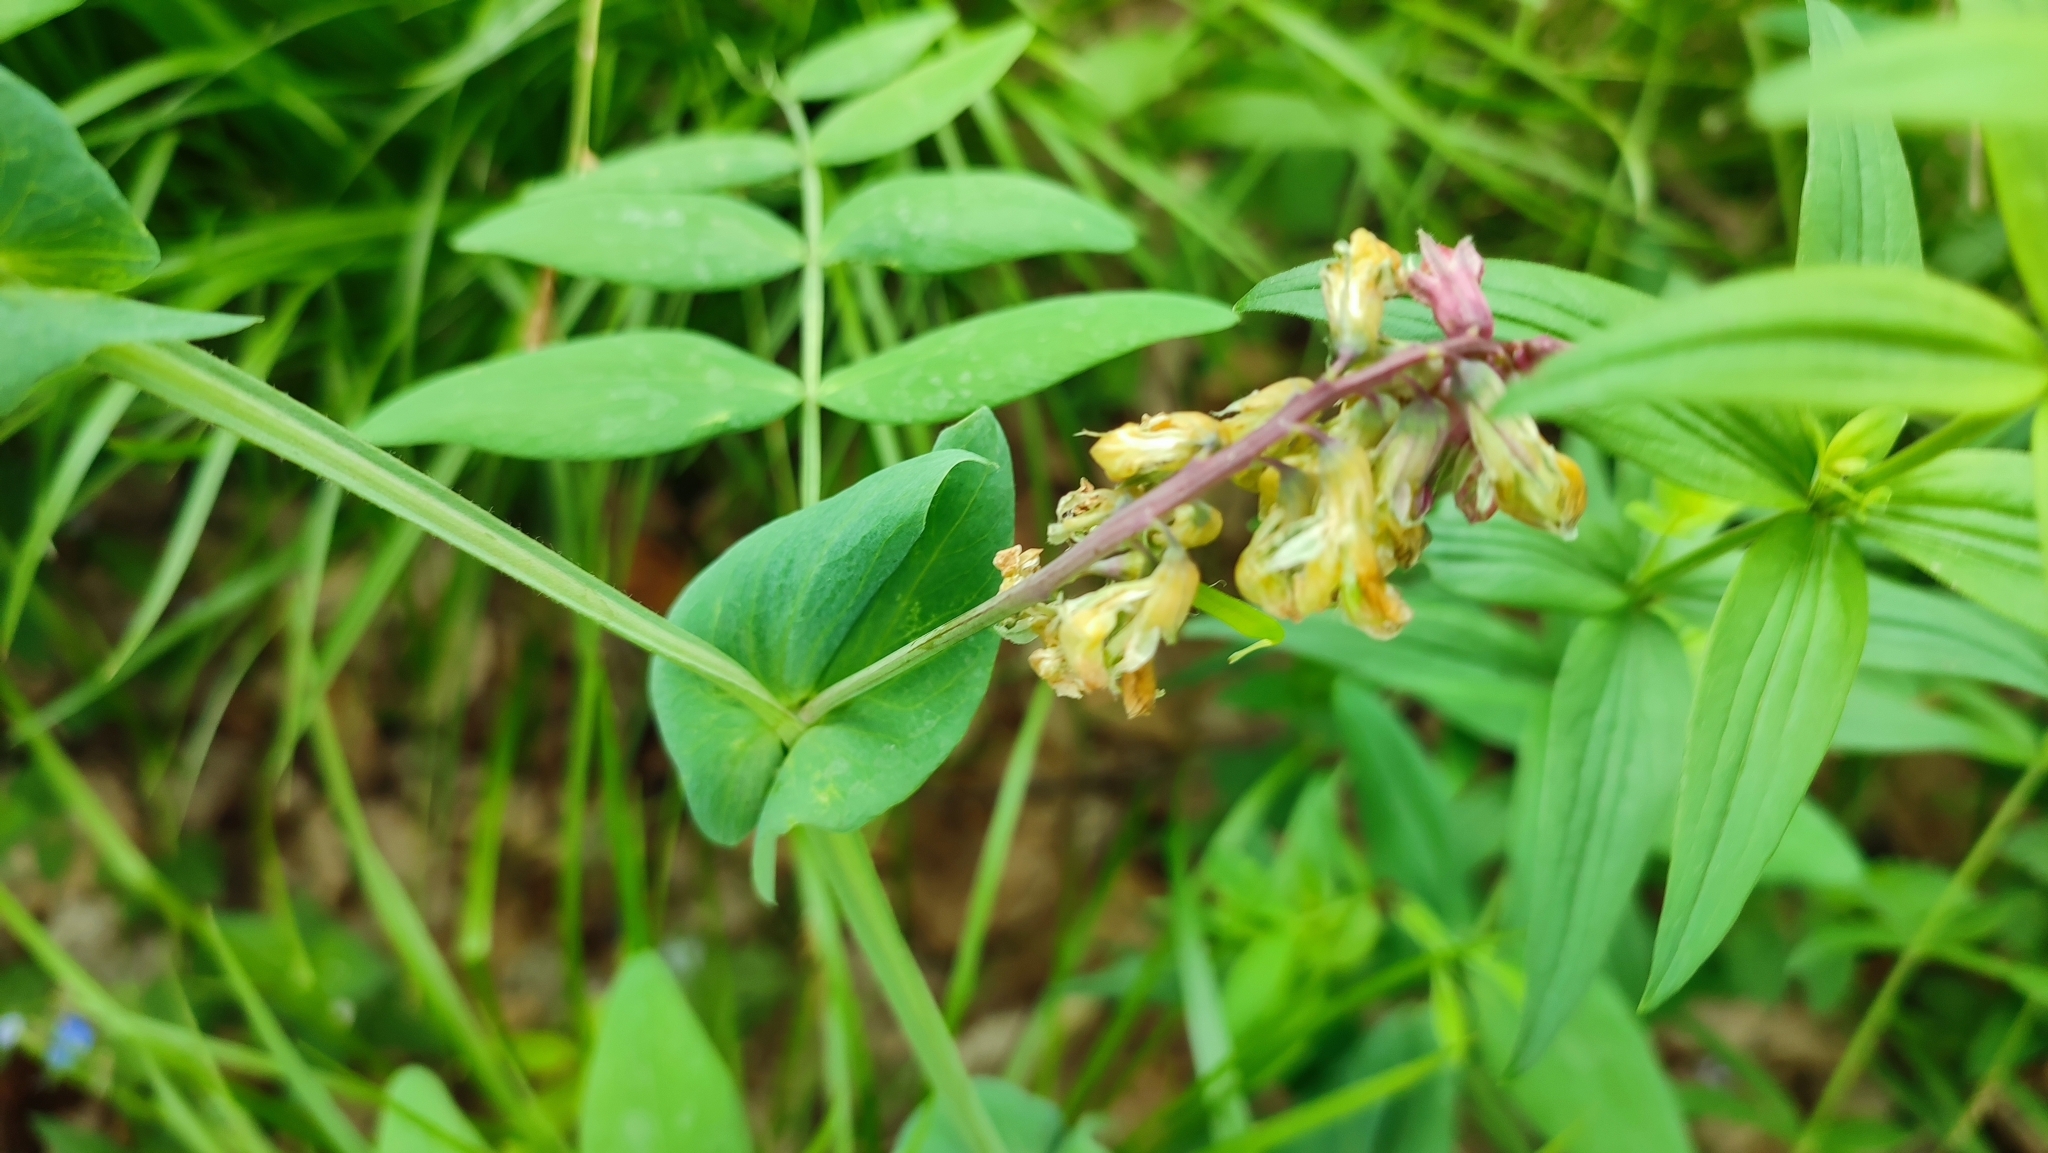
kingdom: Plantae
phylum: Tracheophyta
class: Magnoliopsida
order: Fabales
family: Fabaceae
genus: Lathyrus
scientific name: Lathyrus pisiformis
